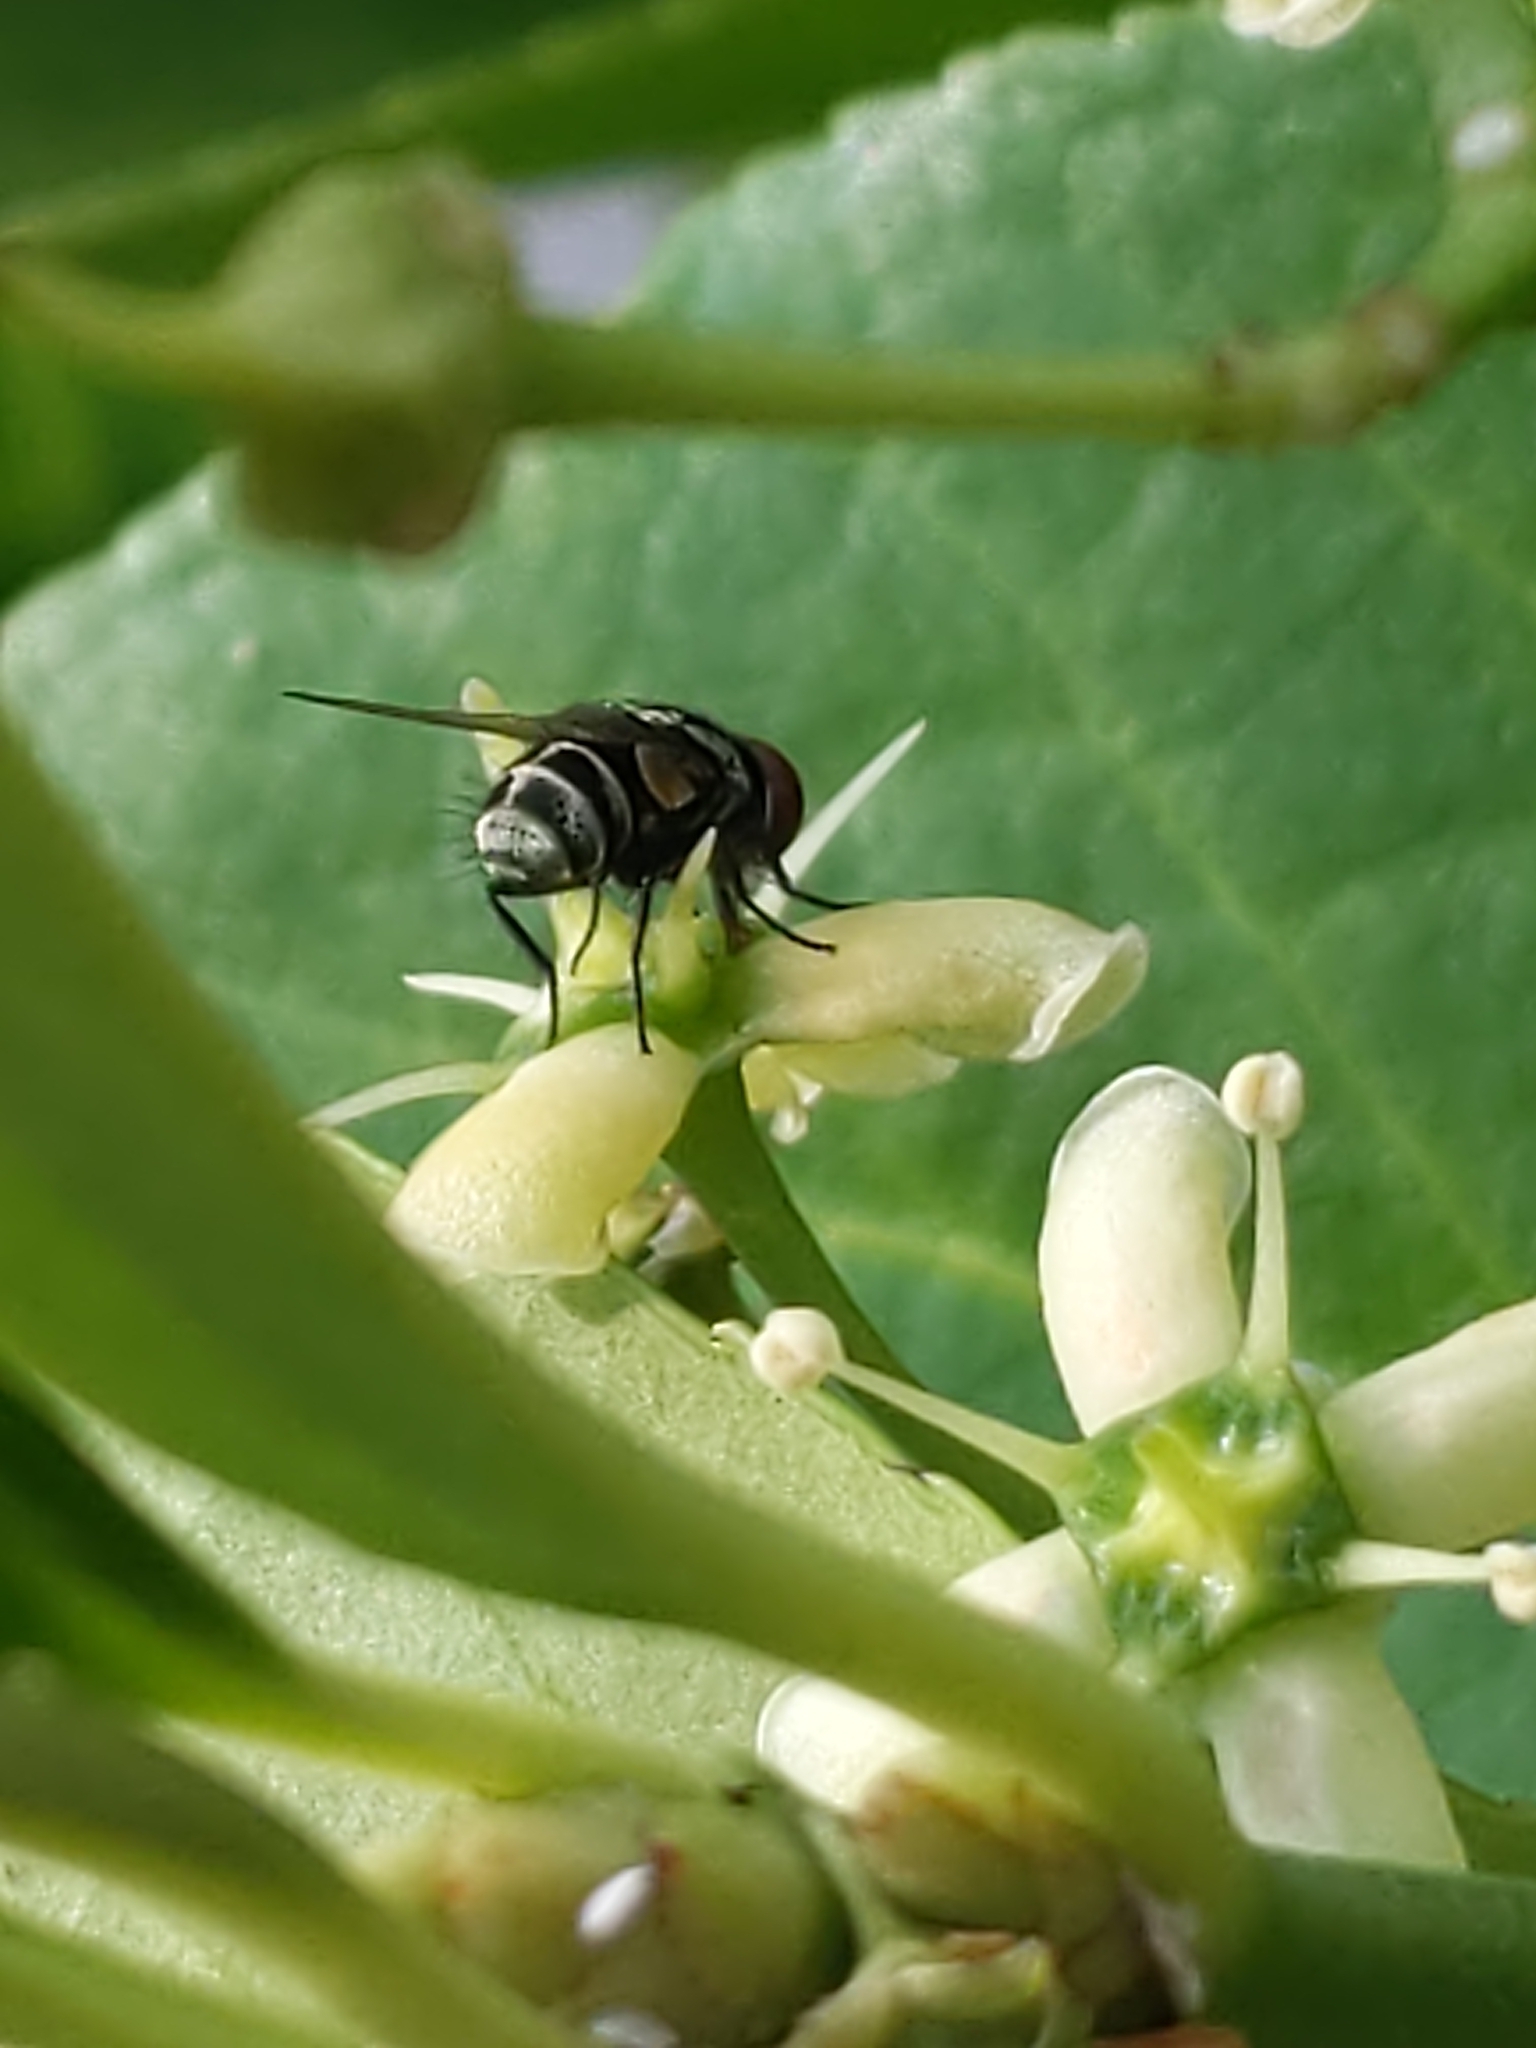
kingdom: Animalia
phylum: Arthropoda
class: Insecta
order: Diptera
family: Tachinidae
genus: Strongygaster
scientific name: Strongygaster triangulifera
